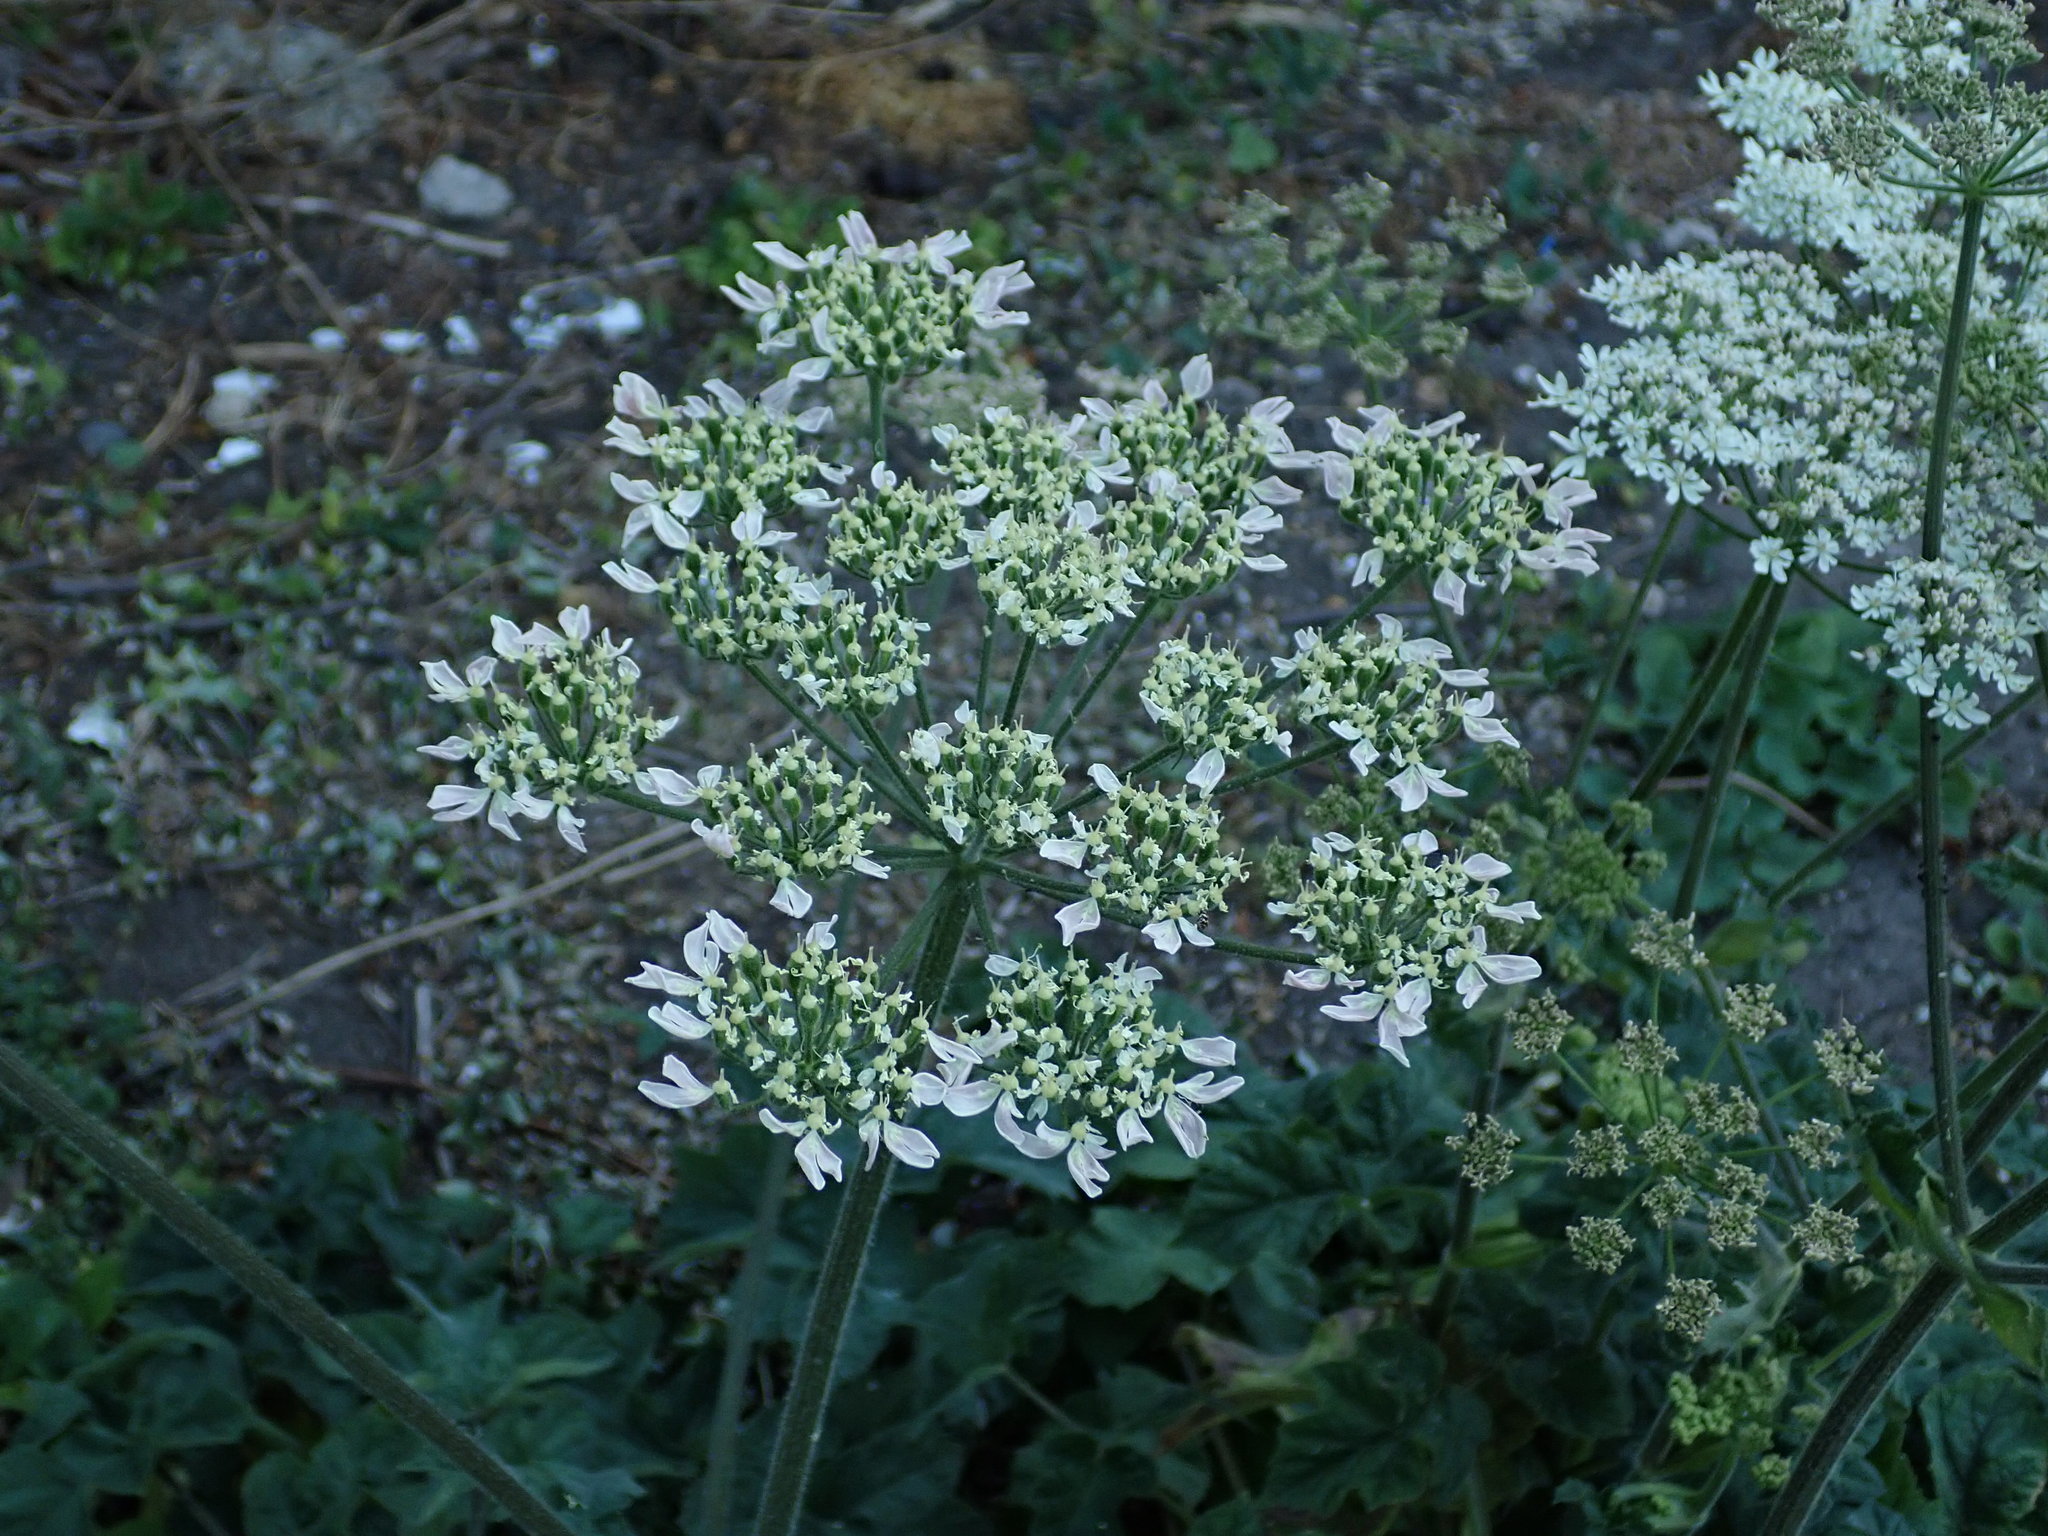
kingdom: Plantae
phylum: Tracheophyta
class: Magnoliopsida
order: Apiales
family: Apiaceae
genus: Heracleum
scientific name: Heracleum sphondylium
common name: Hogweed
